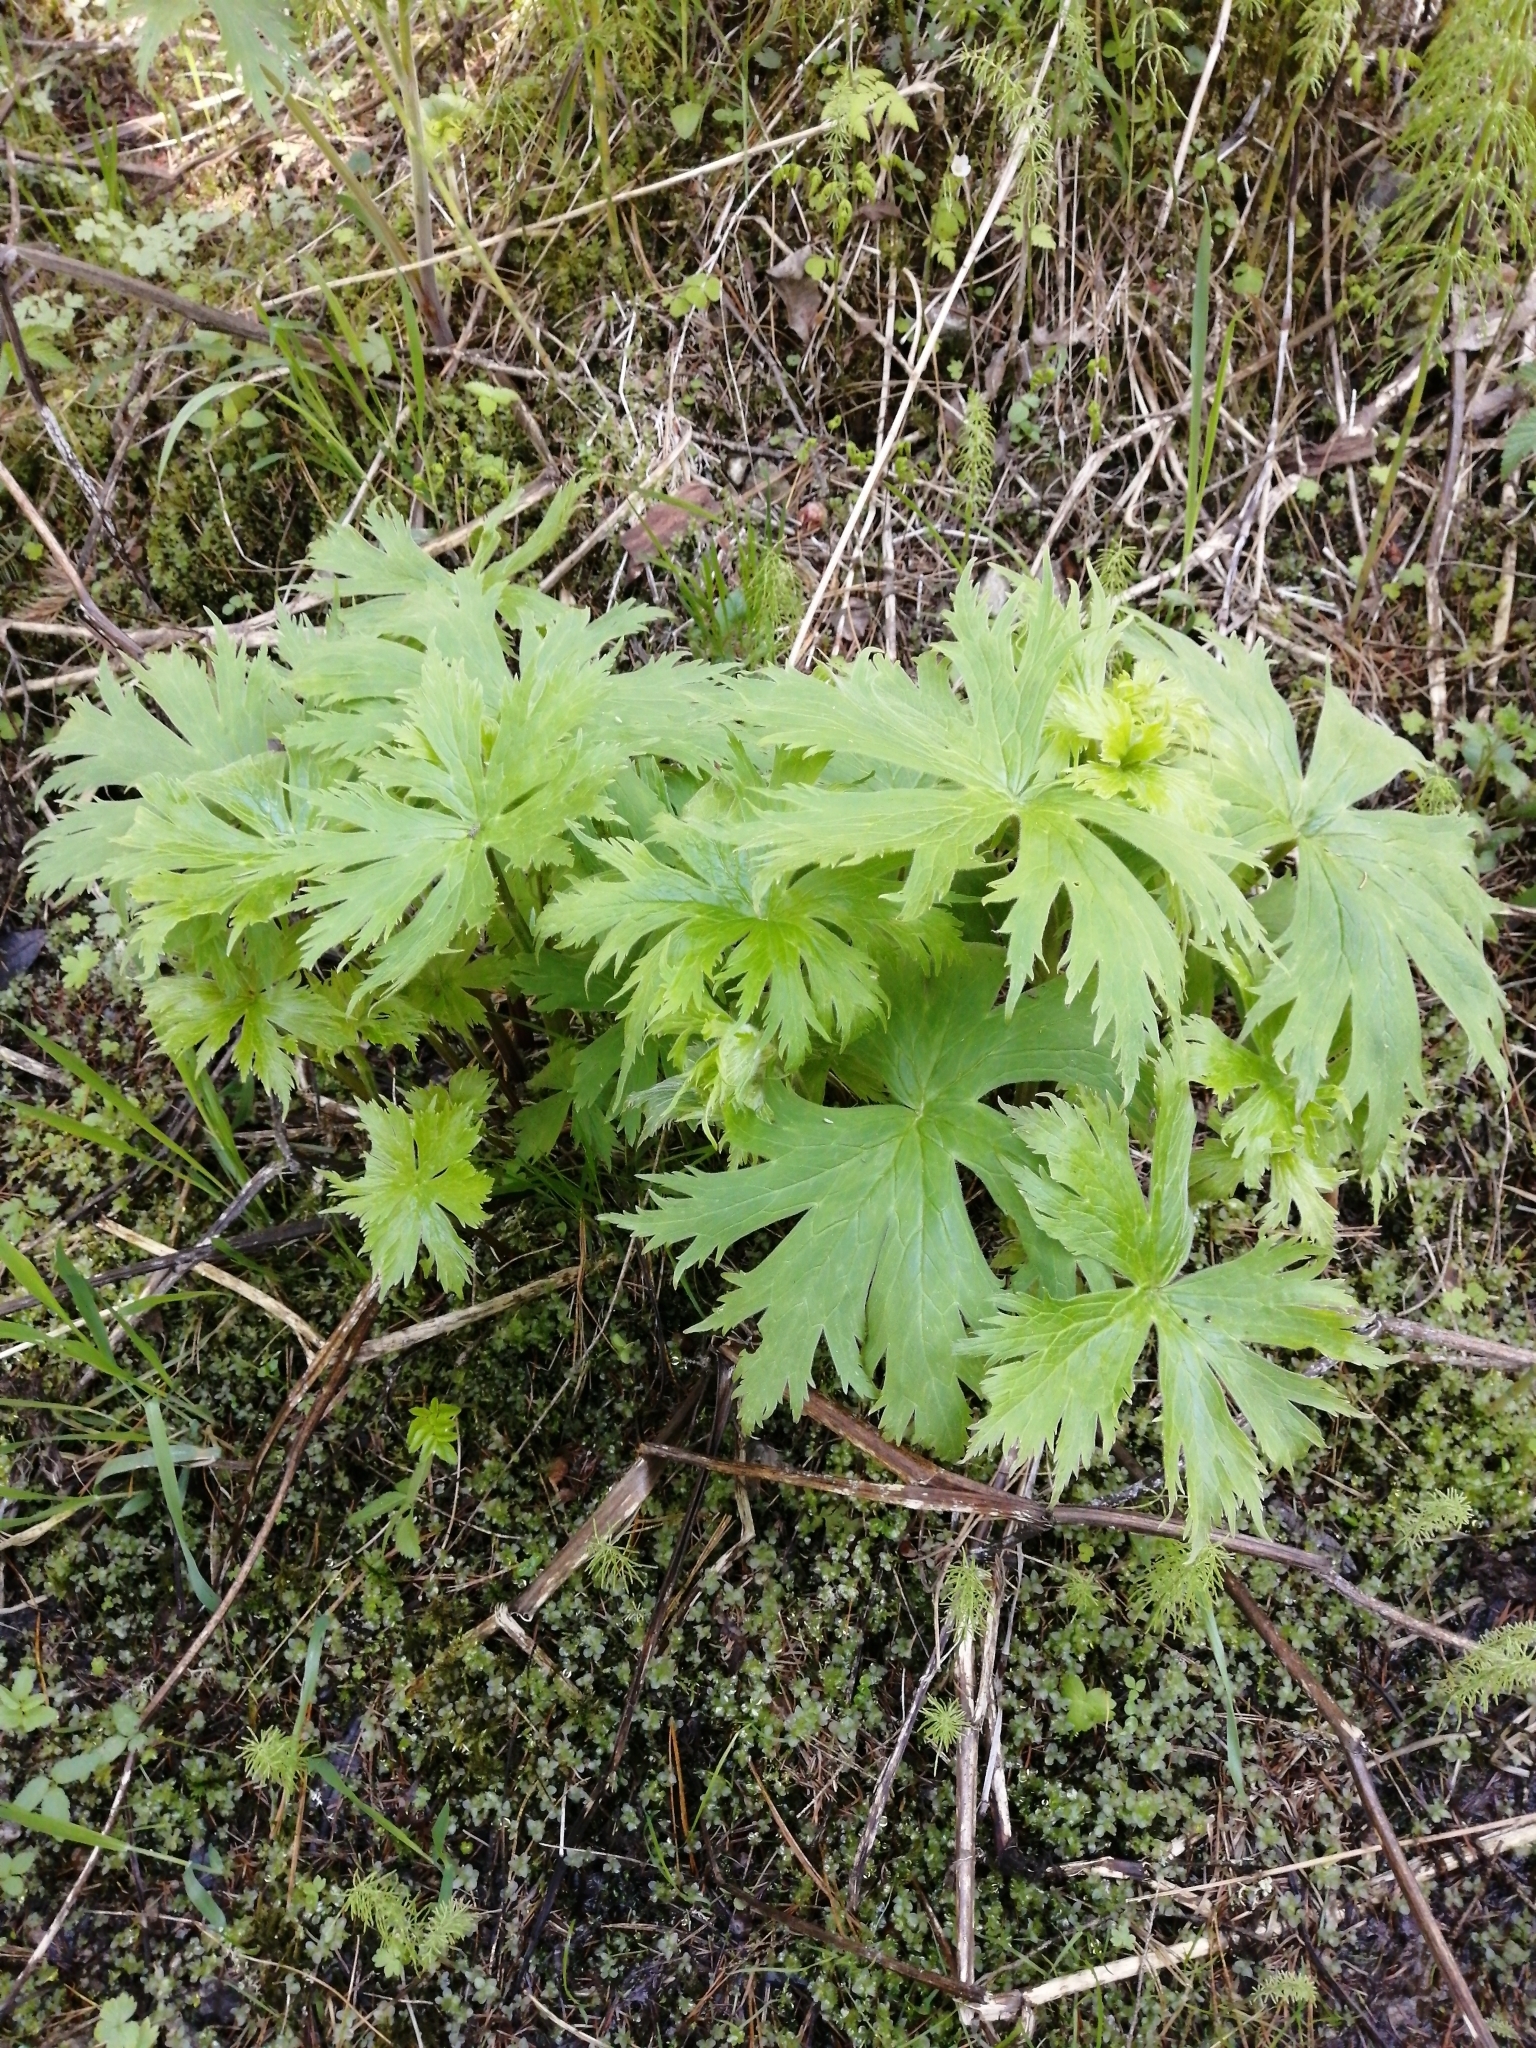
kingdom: Plantae
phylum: Tracheophyta
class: Magnoliopsida
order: Ranunculales
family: Ranunculaceae
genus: Aconitum
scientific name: Aconitum septentrionale
